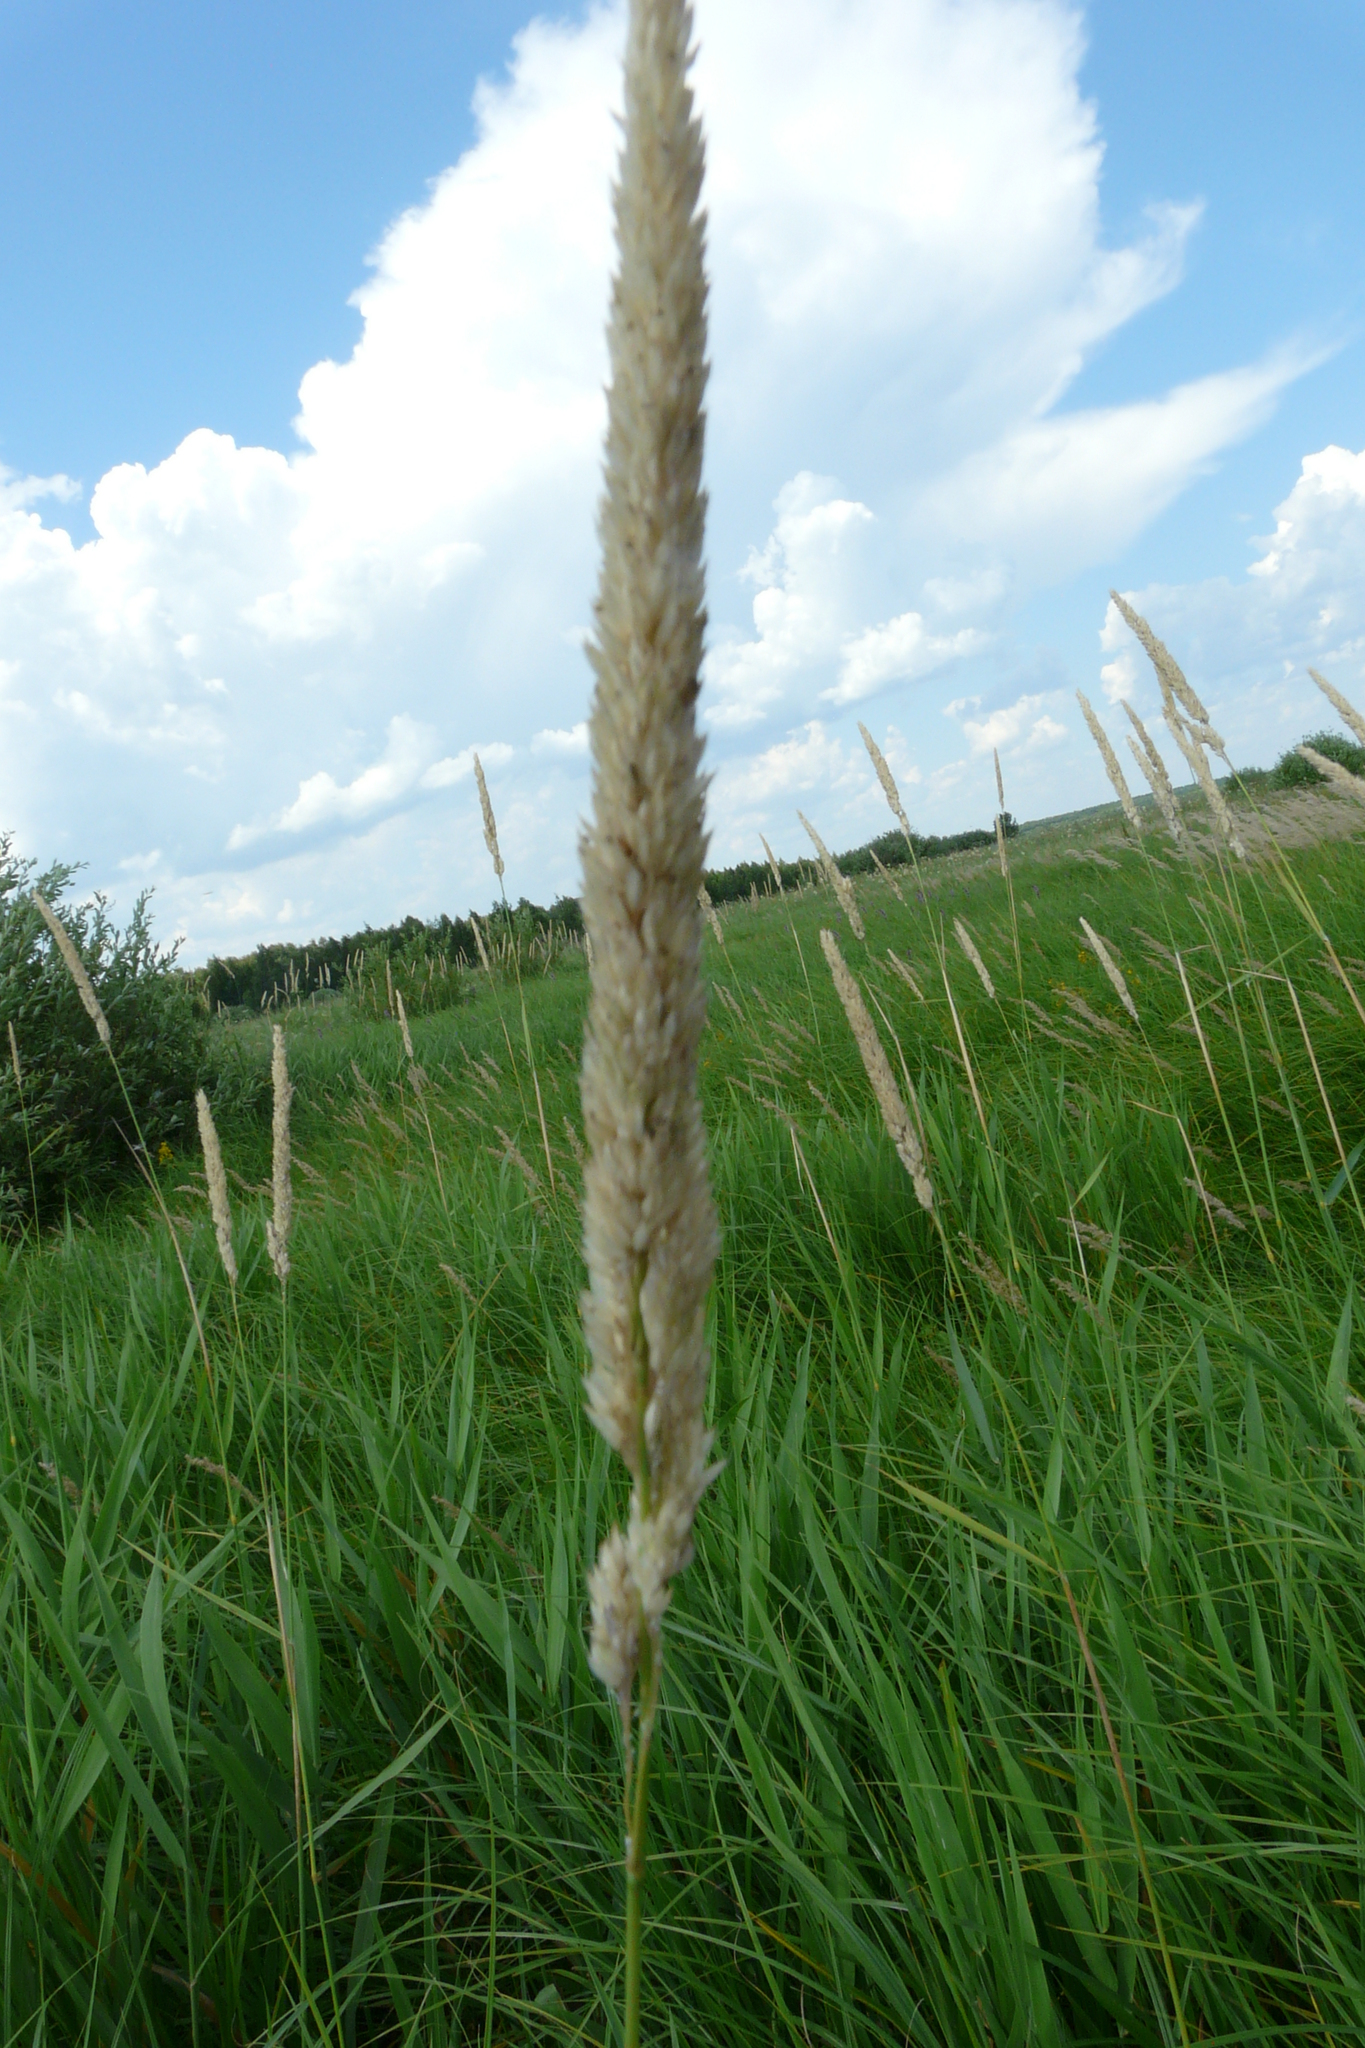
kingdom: Plantae
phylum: Tracheophyta
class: Liliopsida
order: Poales
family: Poaceae
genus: Phalaris
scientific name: Phalaris arundinacea
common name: Reed canary-grass
